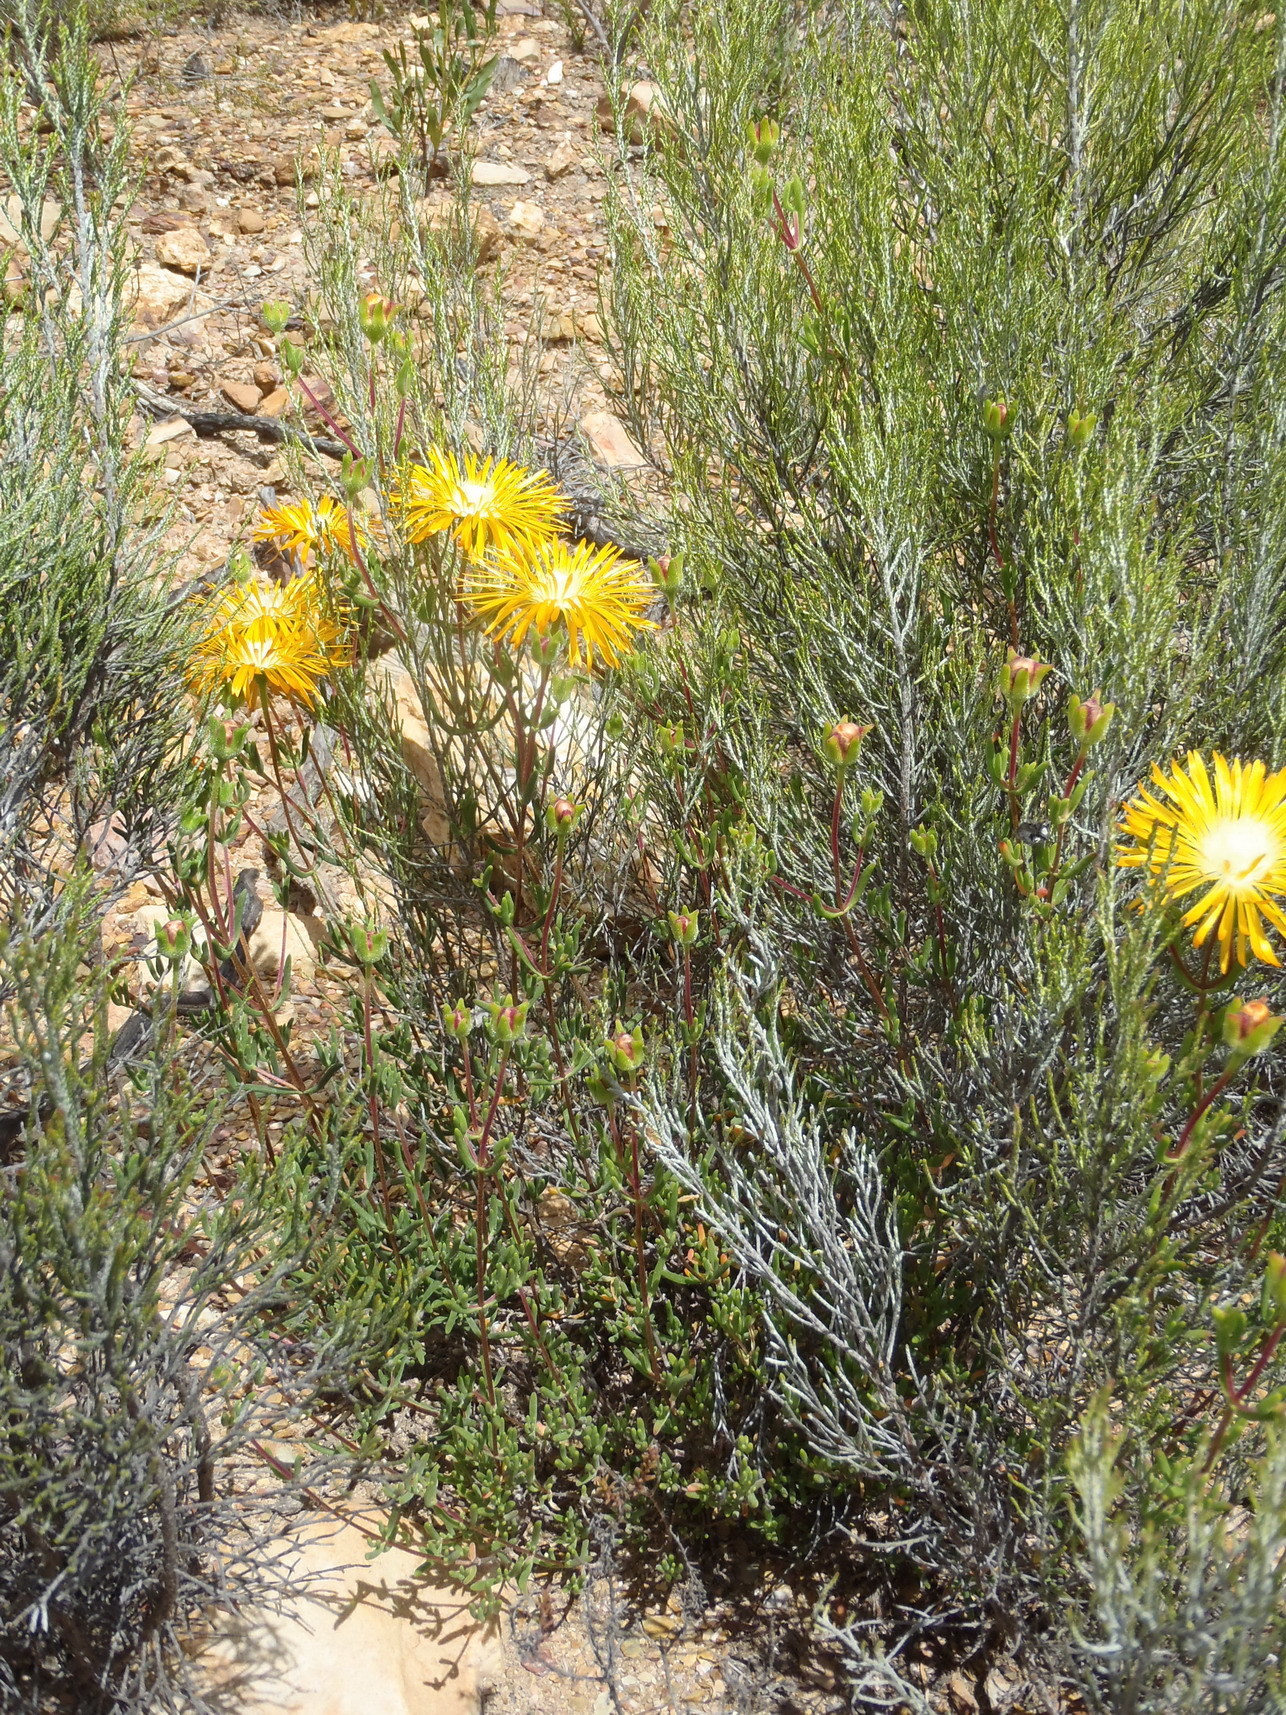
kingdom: Plantae
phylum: Tracheophyta
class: Magnoliopsida
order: Caryophyllales
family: Aizoaceae
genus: Drosanthemum
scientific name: Drosanthemum bicolor
